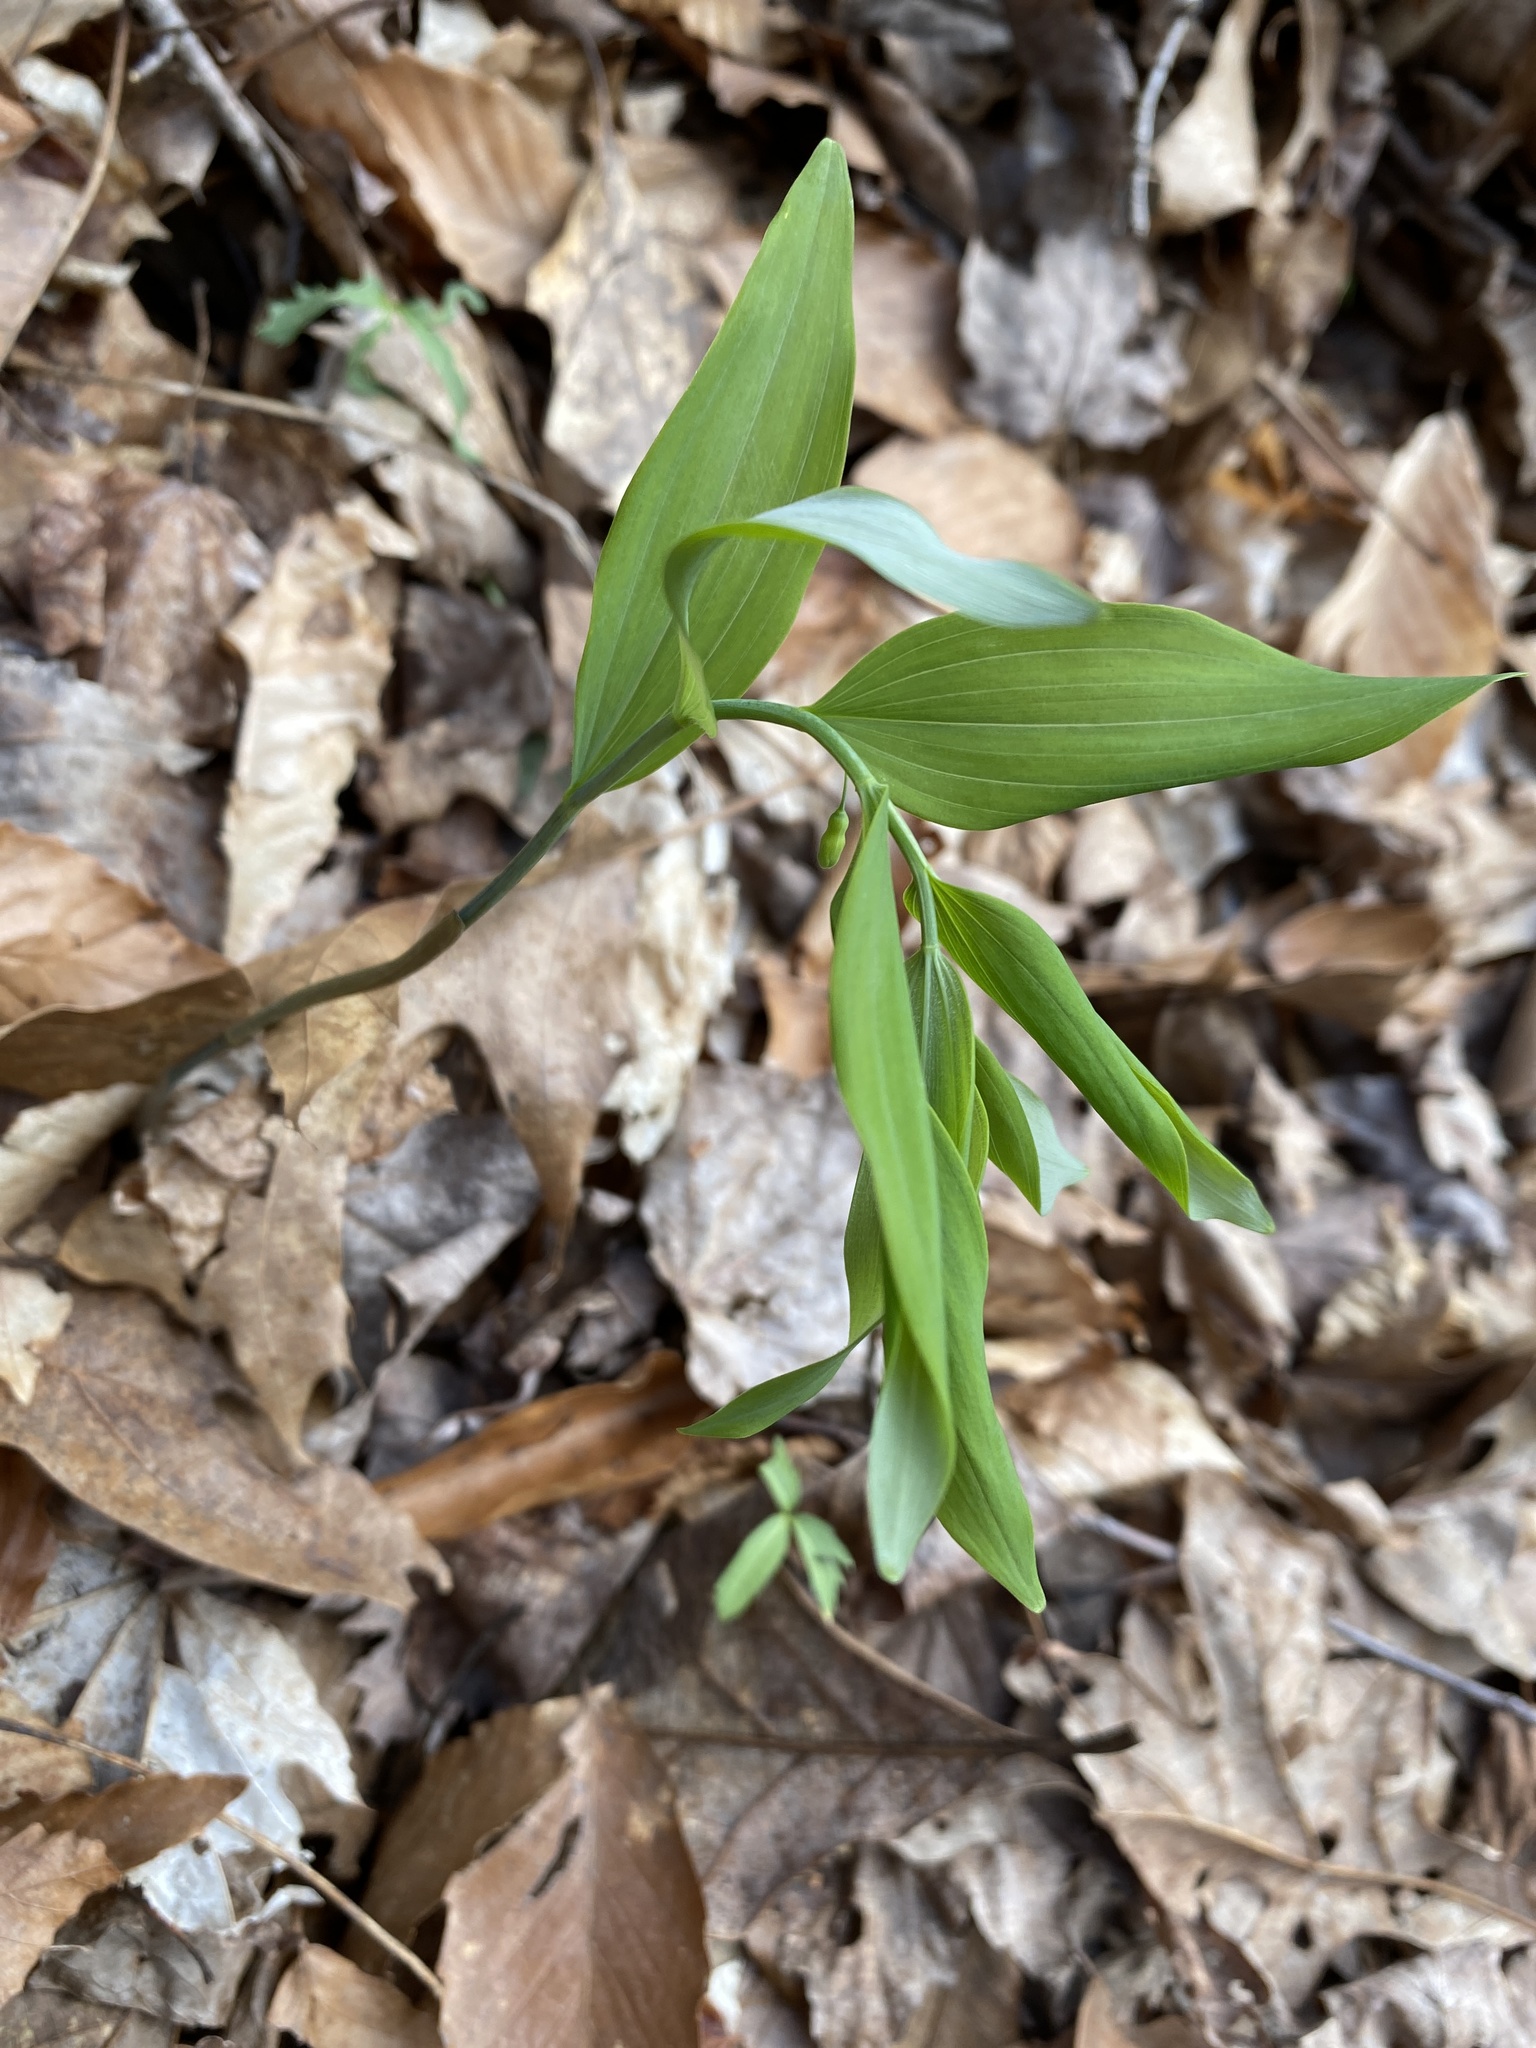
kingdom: Plantae
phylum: Tracheophyta
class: Liliopsida
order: Asparagales
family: Asparagaceae
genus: Polygonatum
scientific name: Polygonatum pubescens
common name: Downy solomon's seal
